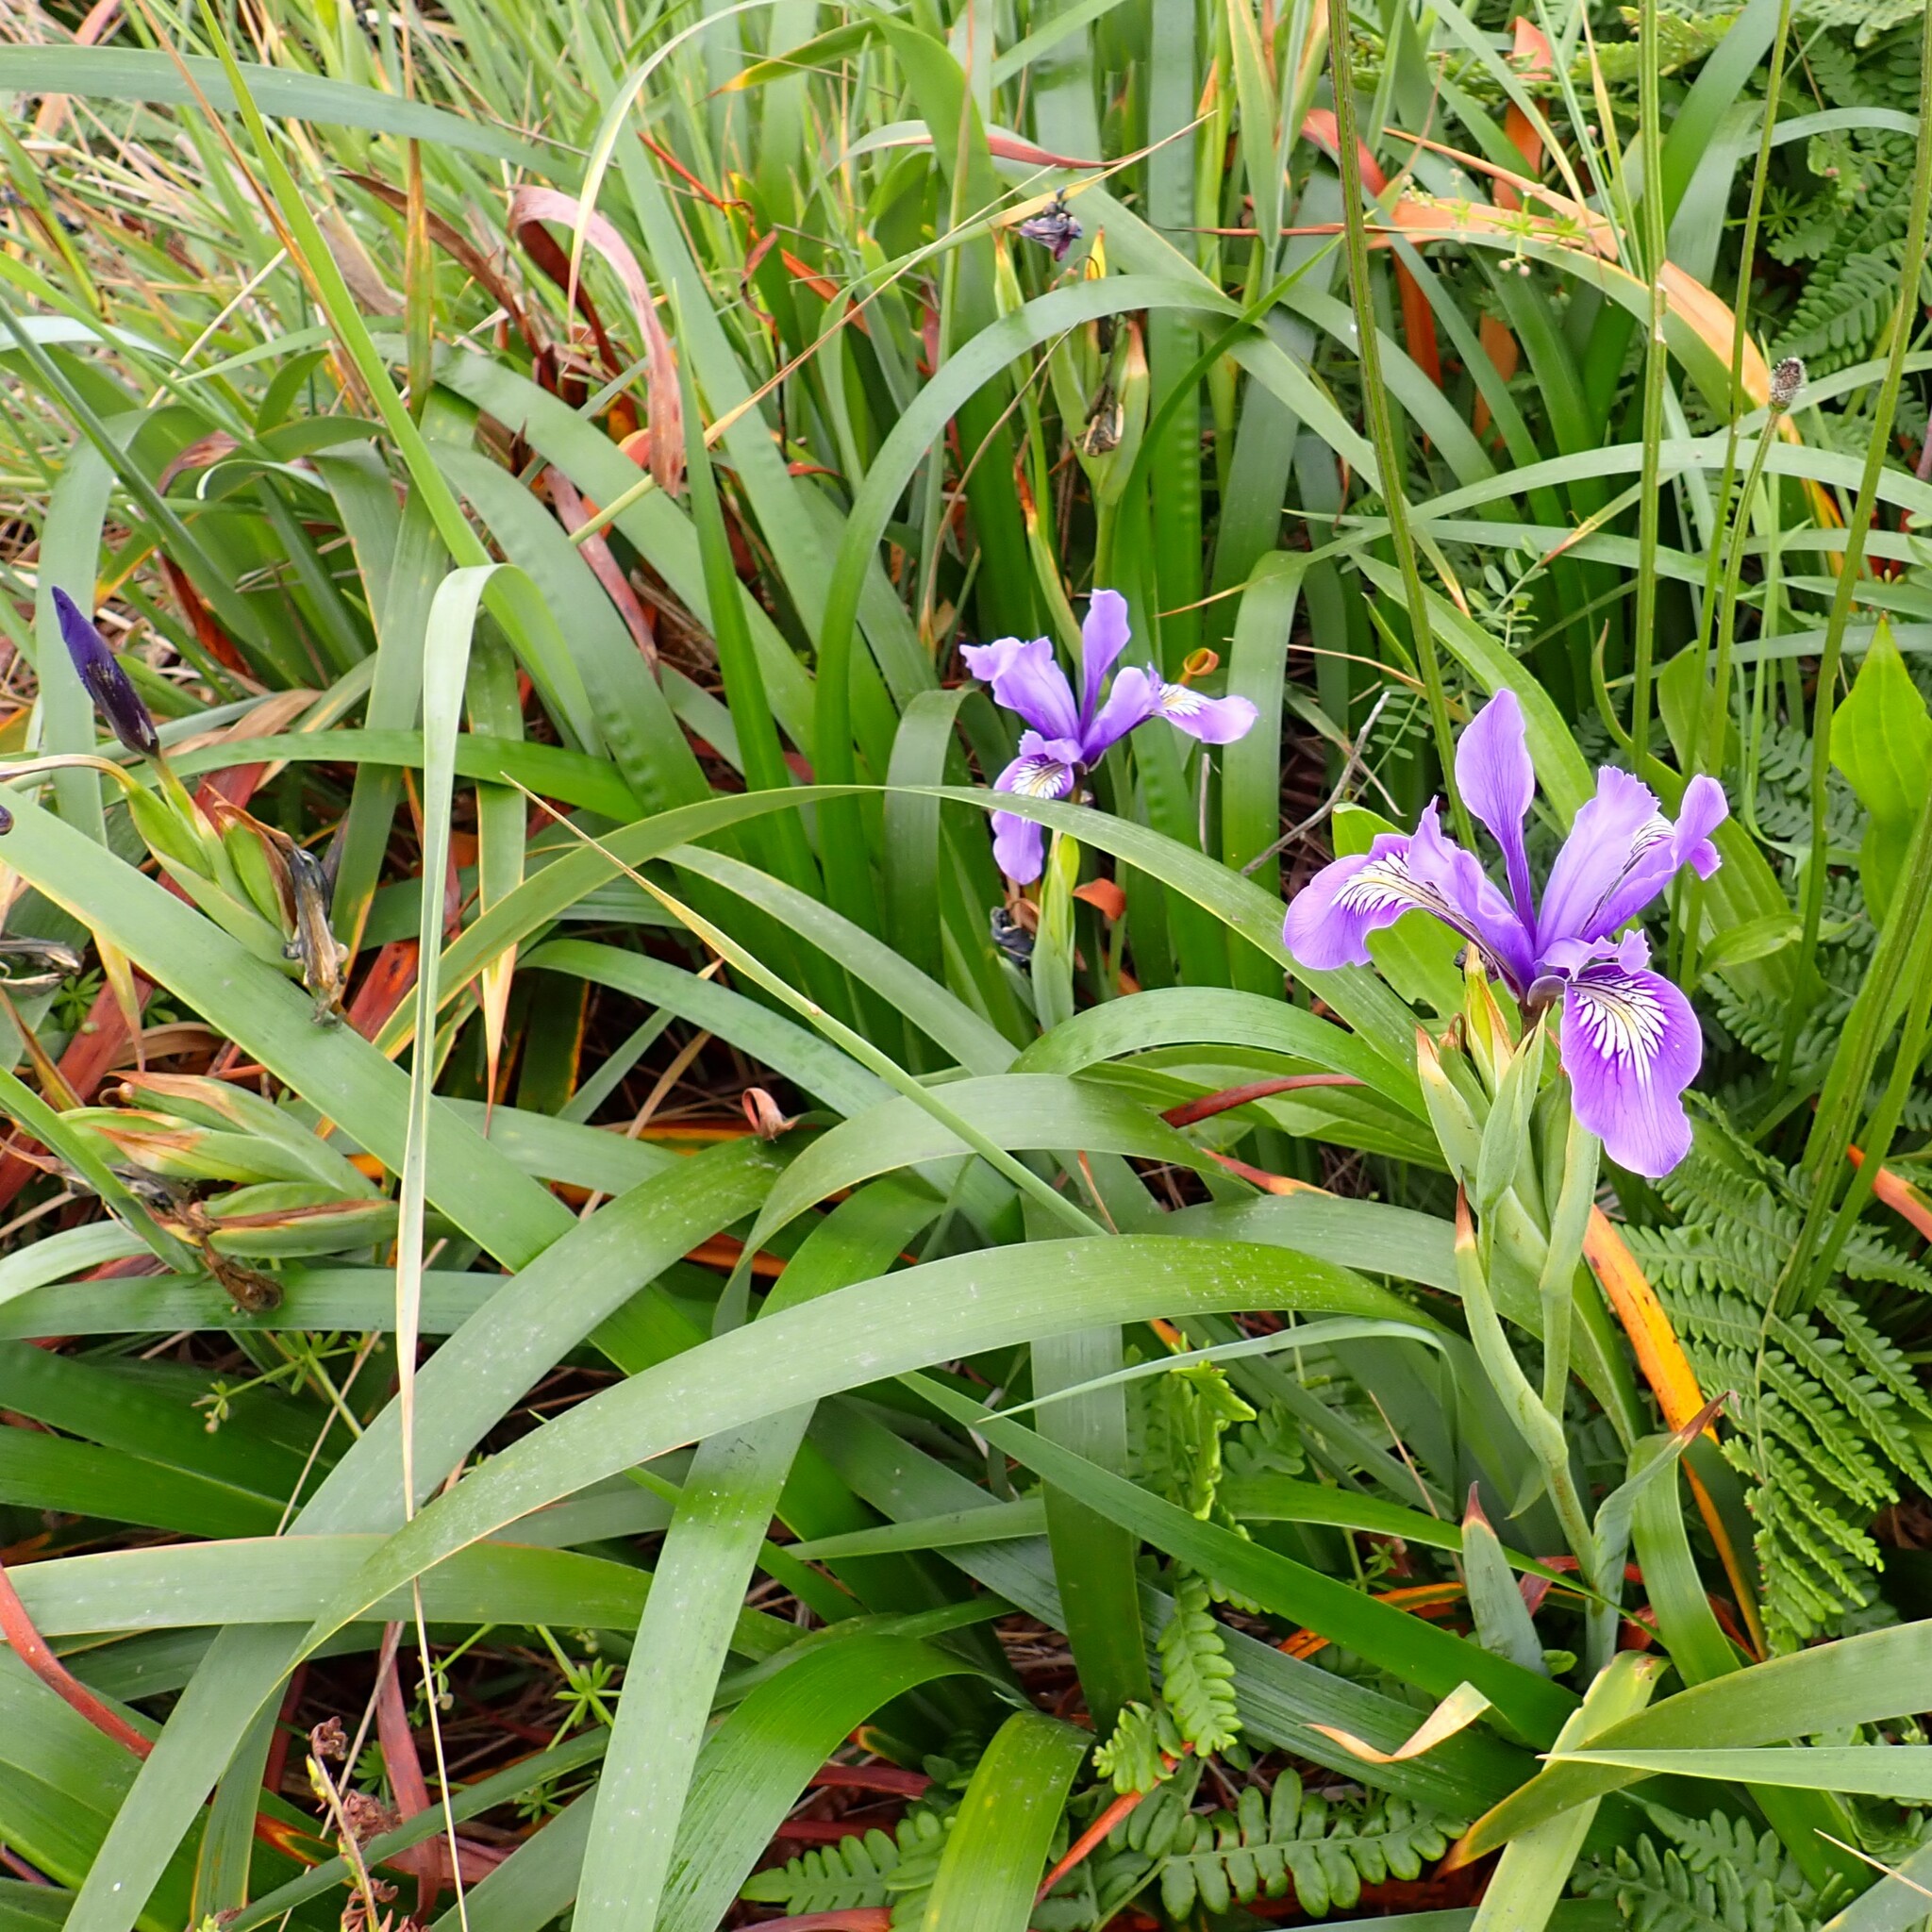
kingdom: Plantae
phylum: Tracheophyta
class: Liliopsida
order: Asparagales
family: Iridaceae
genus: Iris
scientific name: Iris douglasiana
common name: Marin iris
